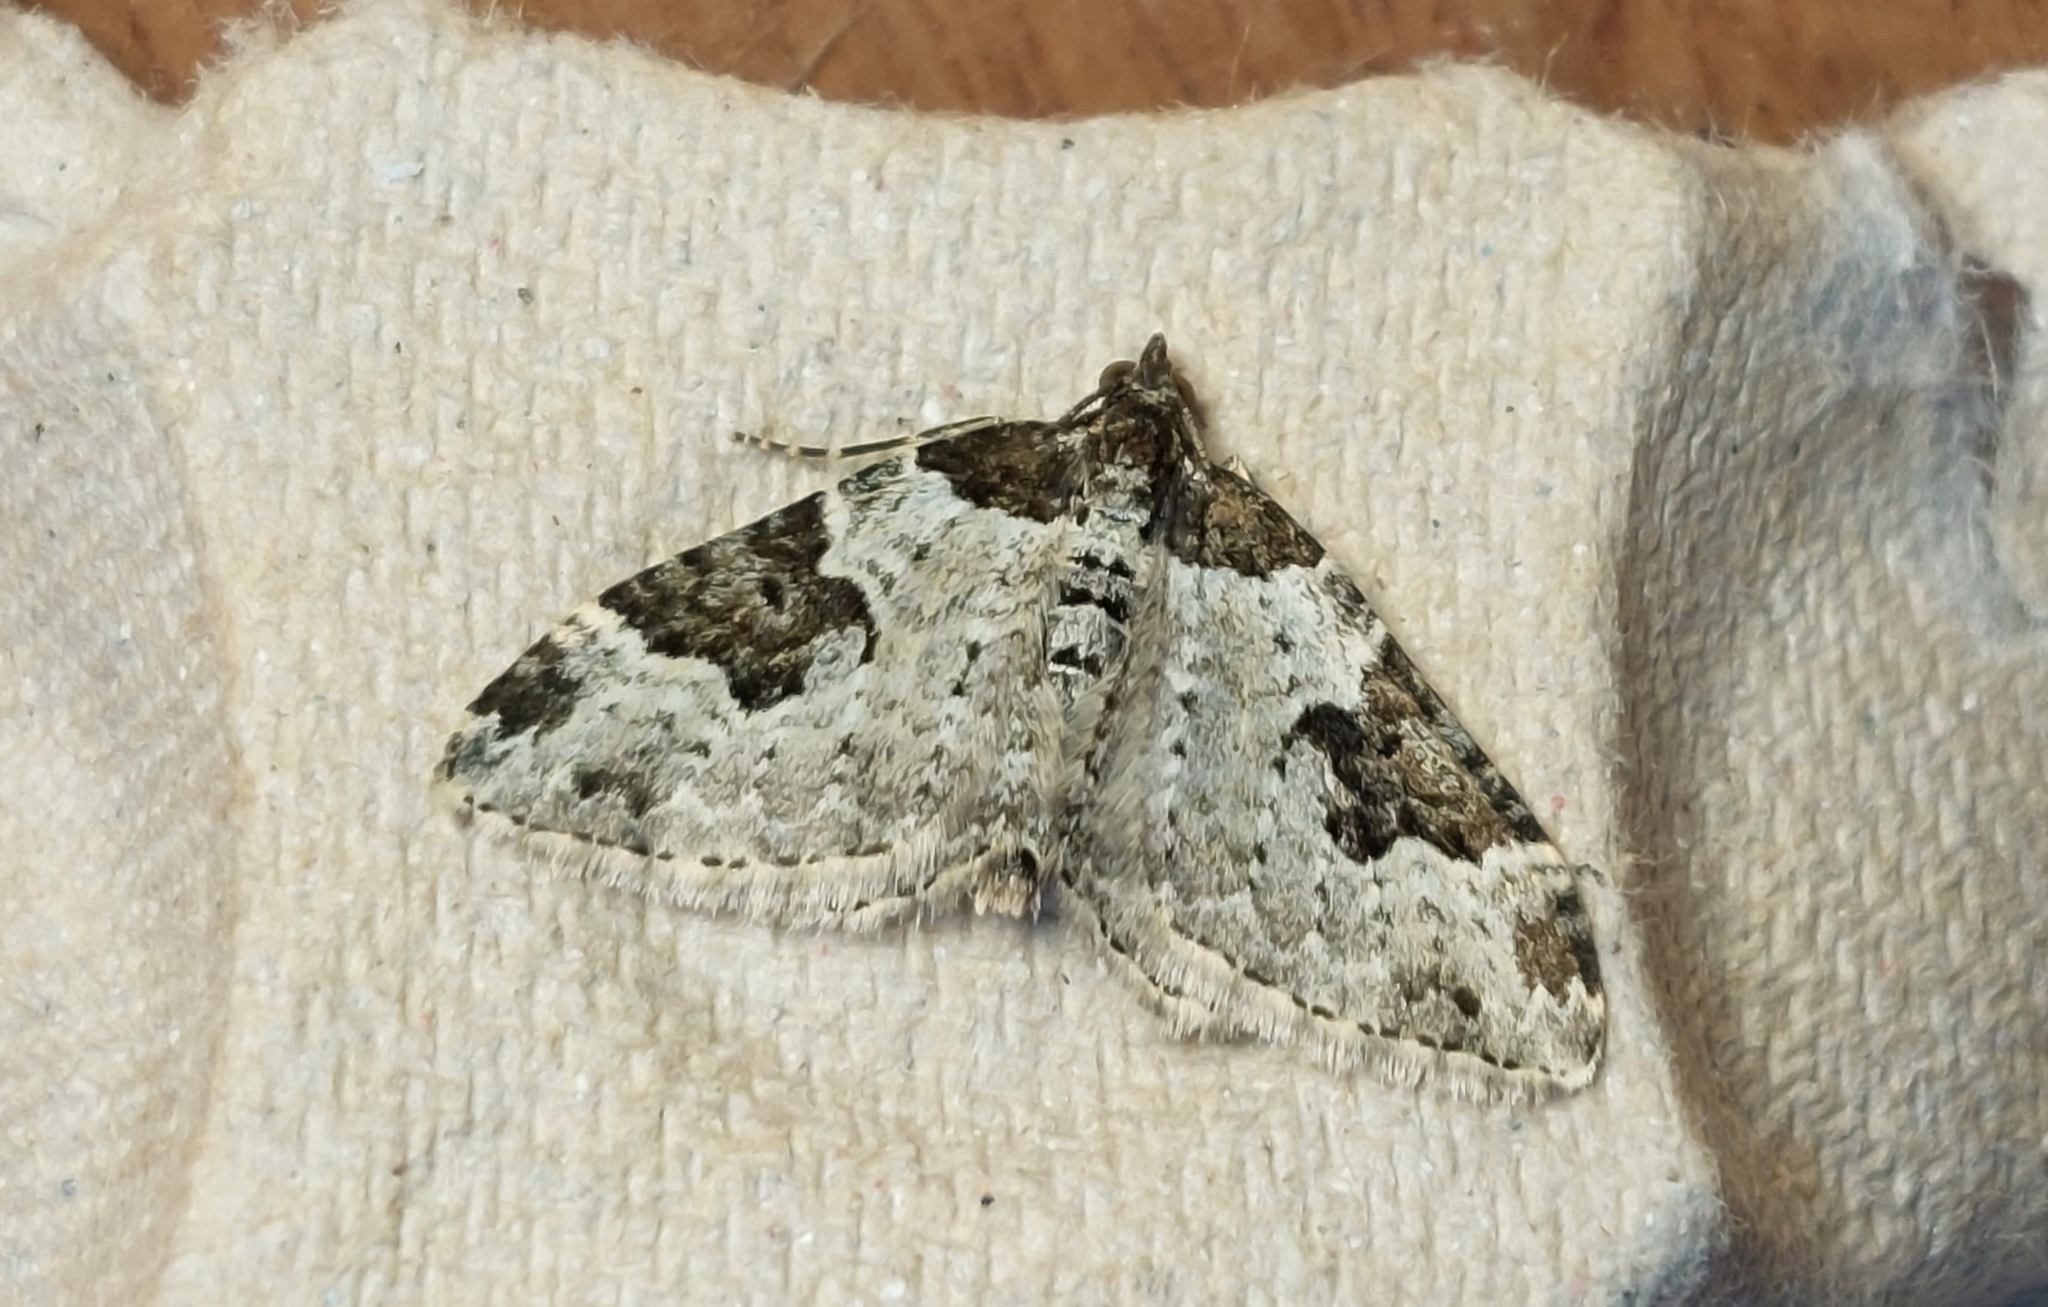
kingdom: Animalia
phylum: Arthropoda
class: Insecta
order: Lepidoptera
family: Geometridae
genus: Xanthorhoe
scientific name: Xanthorhoe fluctuata
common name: Garden carpet
